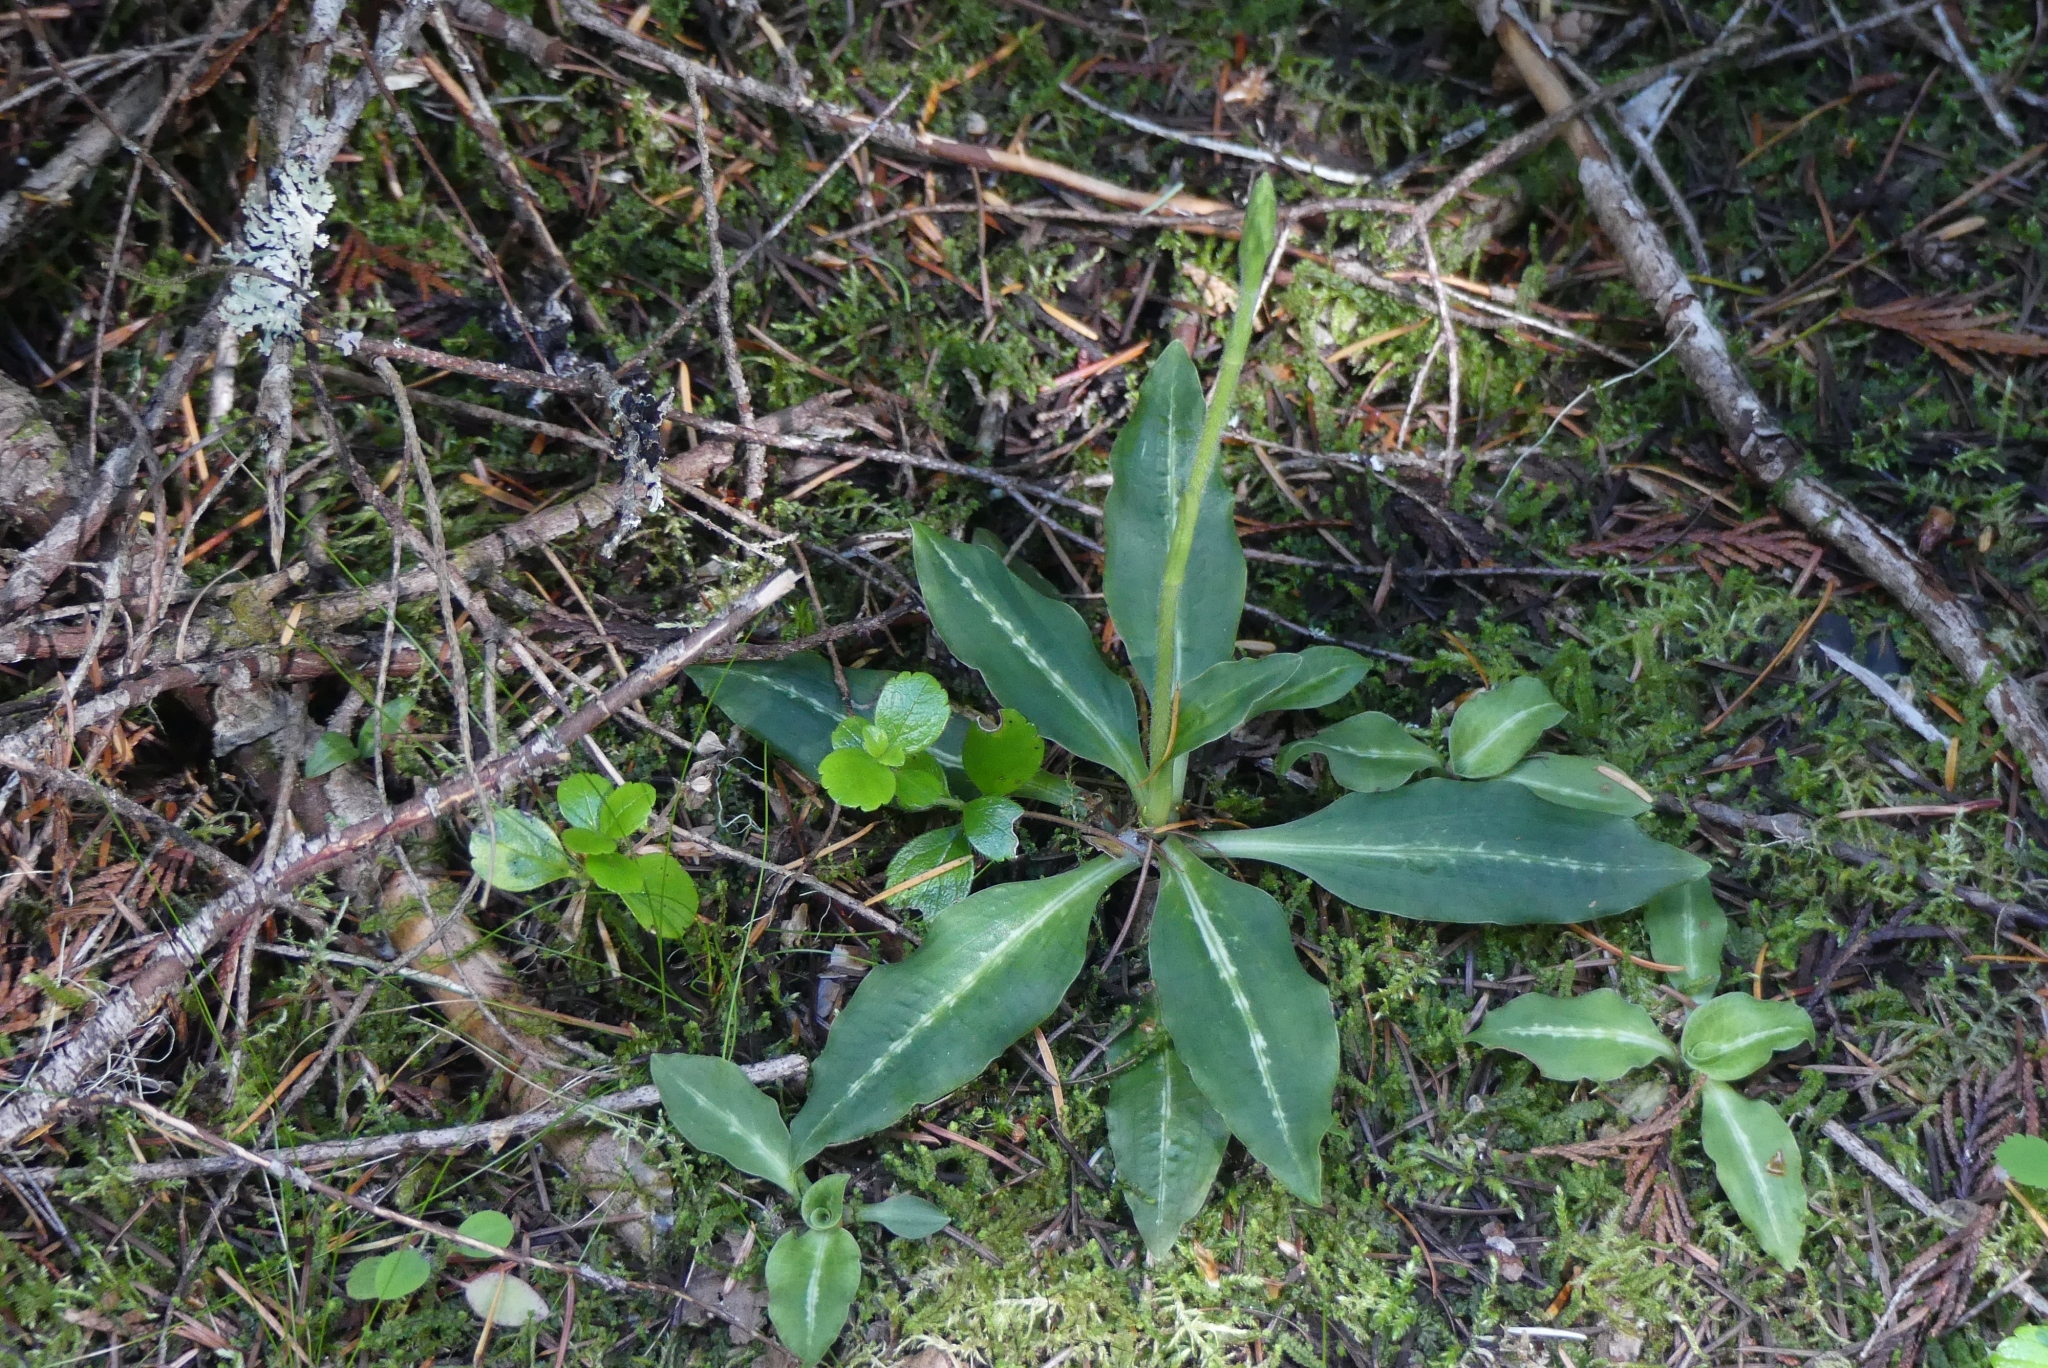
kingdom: Plantae
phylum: Tracheophyta
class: Liliopsida
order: Asparagales
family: Orchidaceae
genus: Goodyera
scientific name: Goodyera oblongifolia
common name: Giant rattlesnake-plantain
